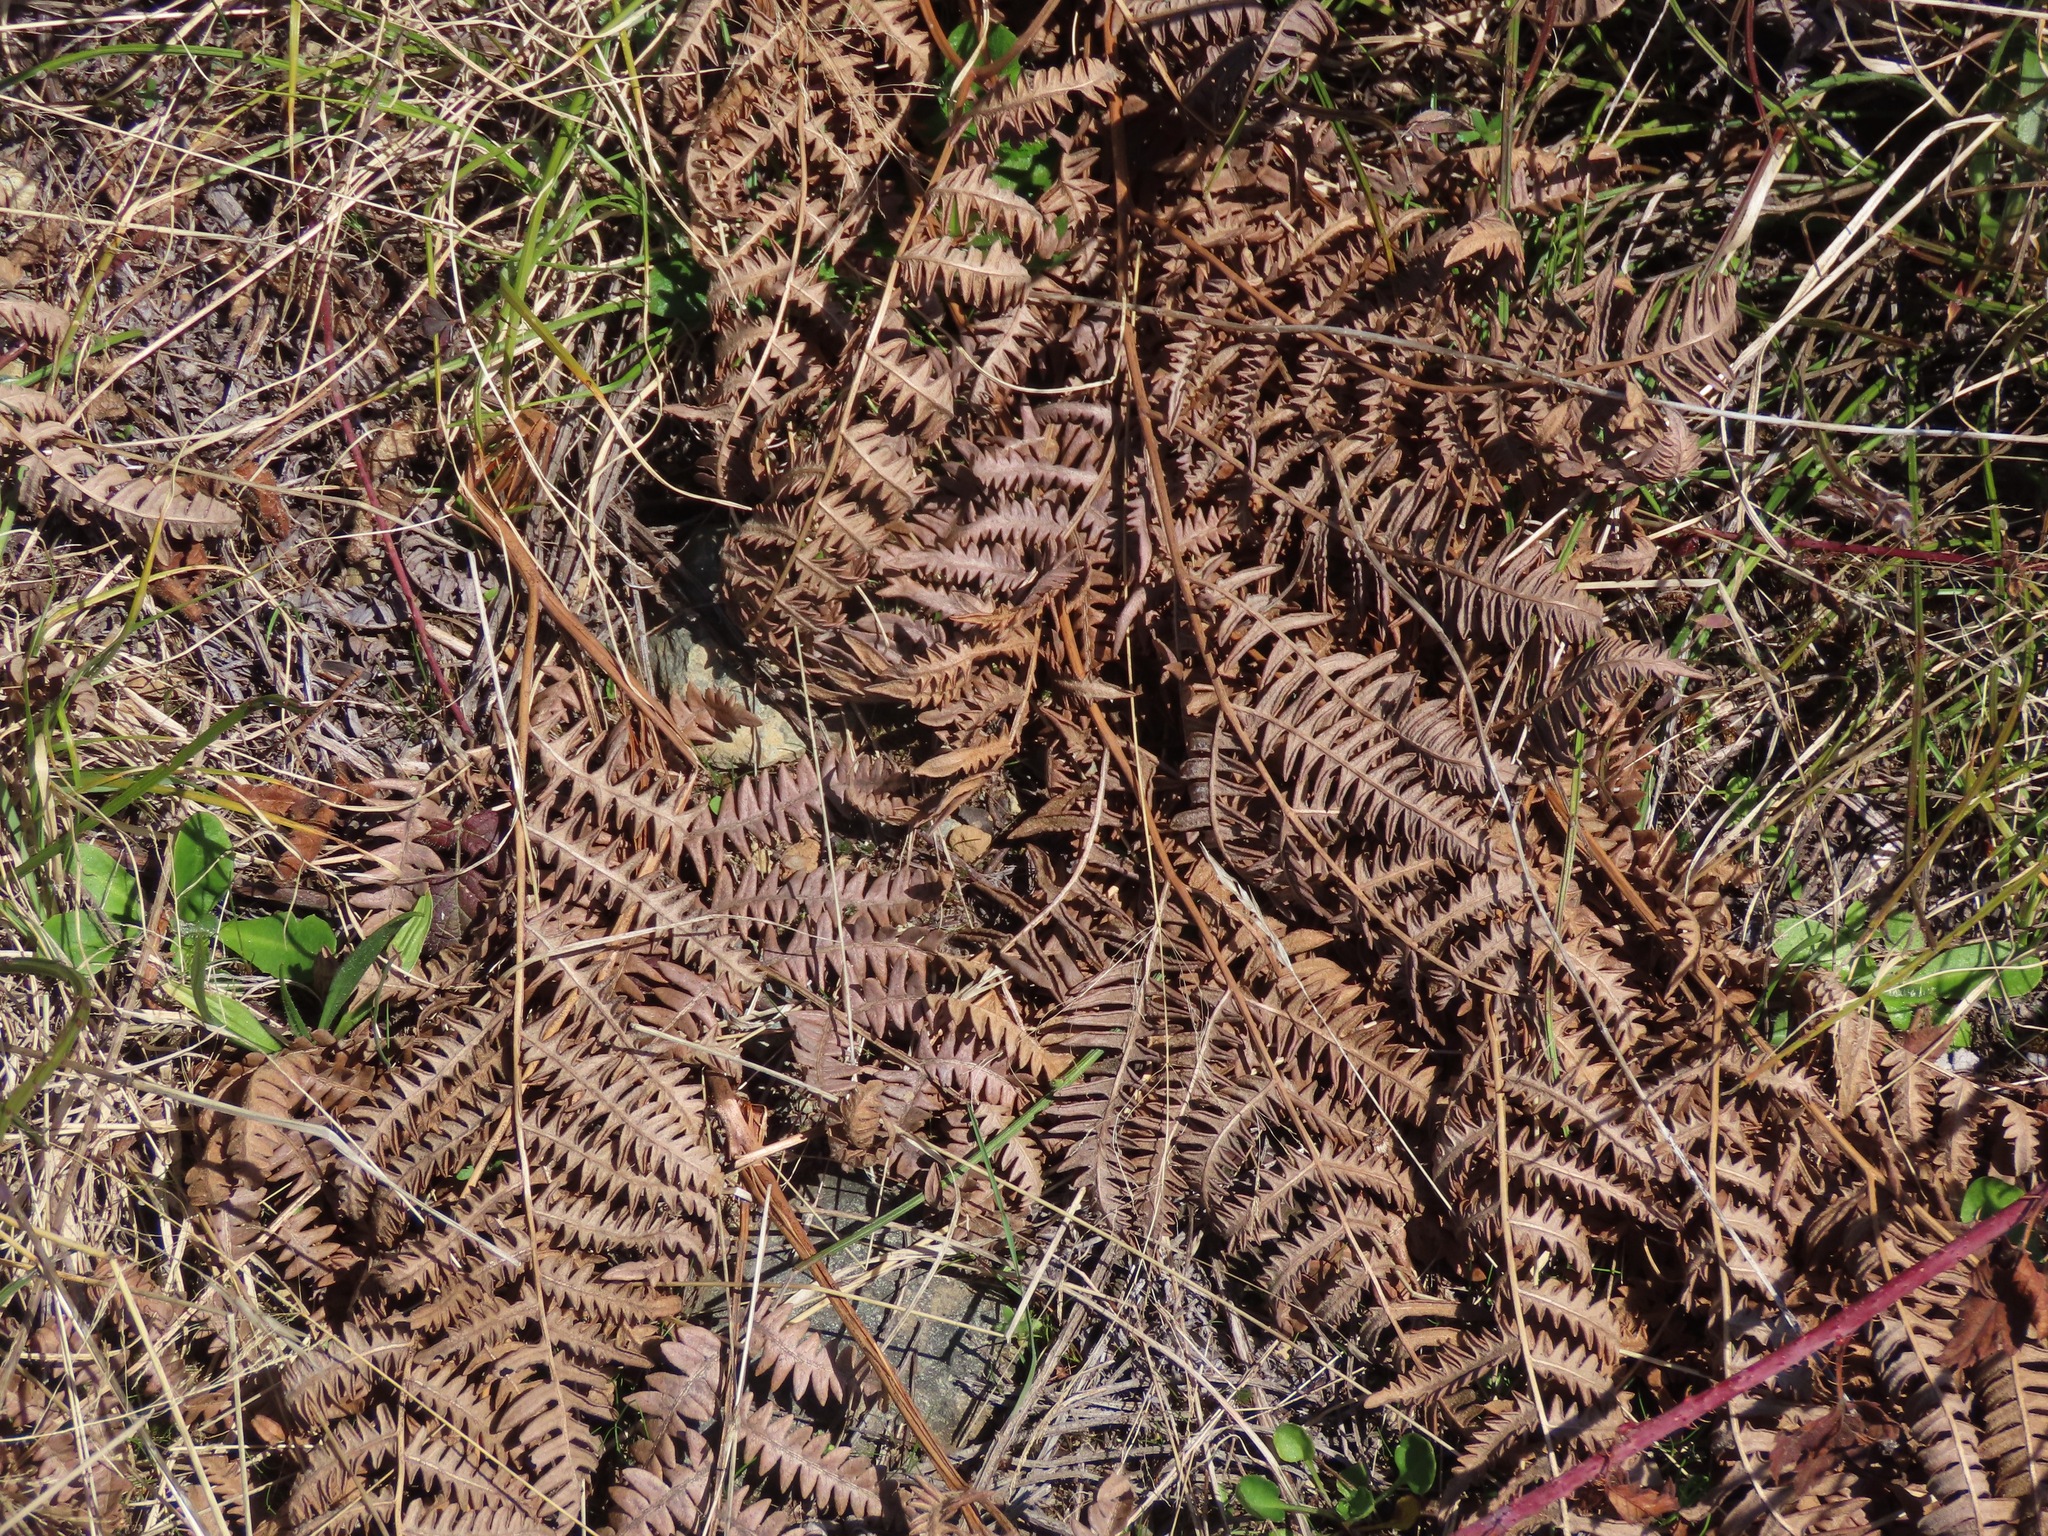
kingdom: Plantae
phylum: Tracheophyta
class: Polypodiopsida
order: Polypodiales
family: Dennstaedtiaceae
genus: Pteridium
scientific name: Pteridium aquilinum
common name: Bracken
